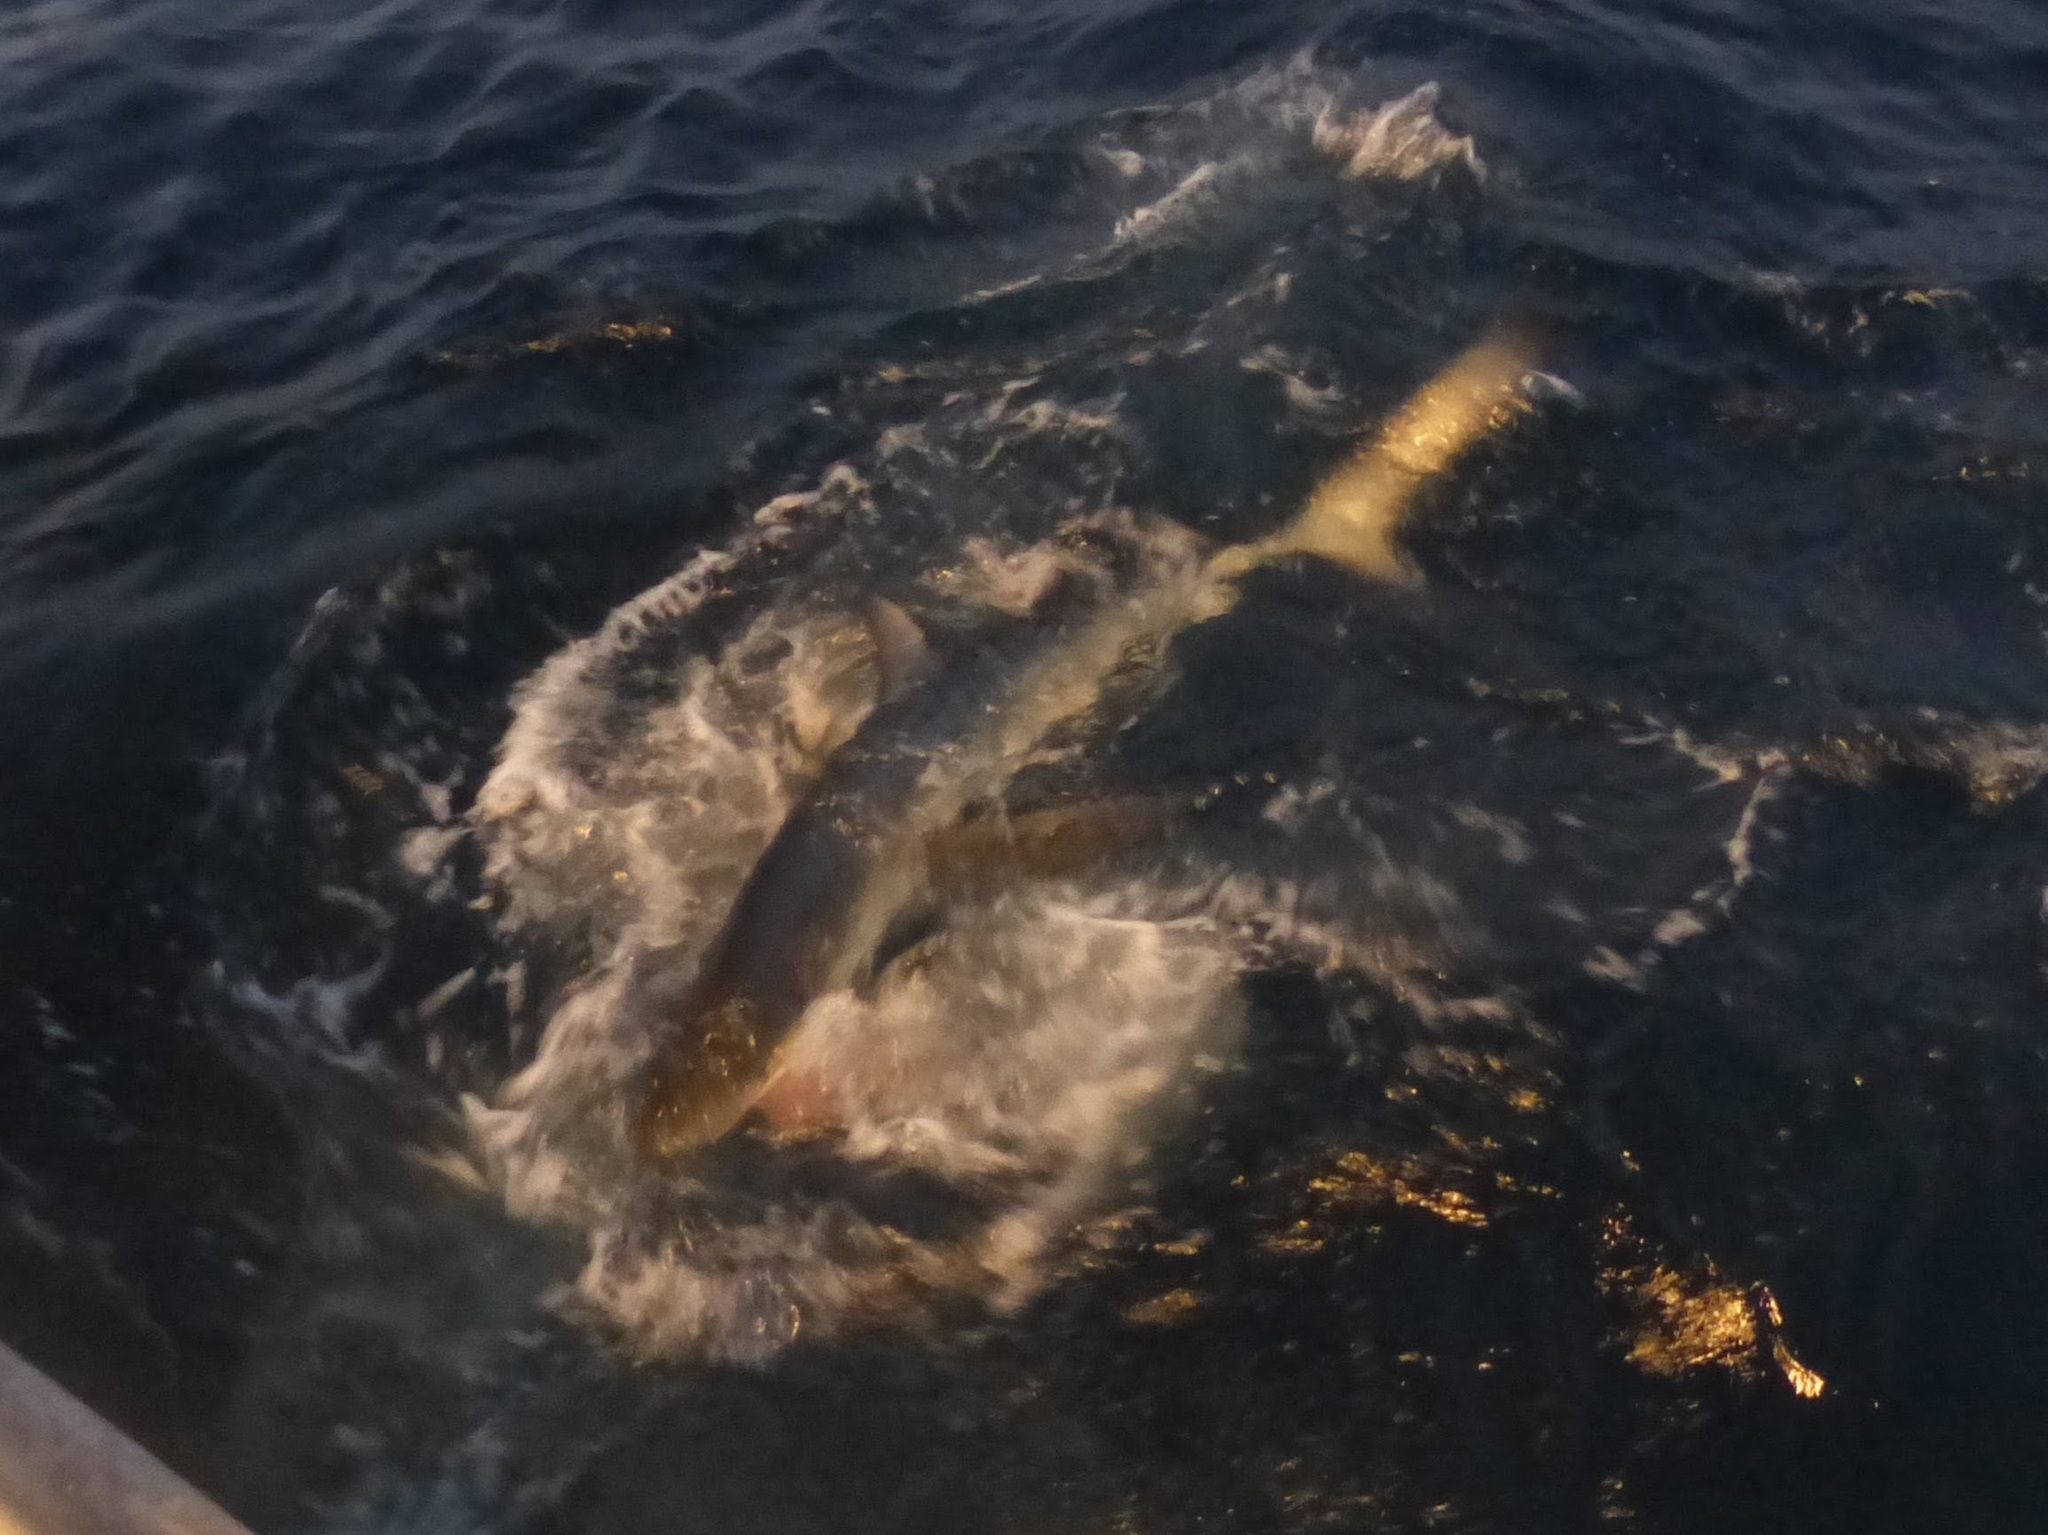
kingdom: Animalia
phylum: Chordata
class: Elasmobranchii
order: Carcharhiniformes
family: Carcharhinidae
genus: Prionace
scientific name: Prionace glauca
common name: Blue shark
